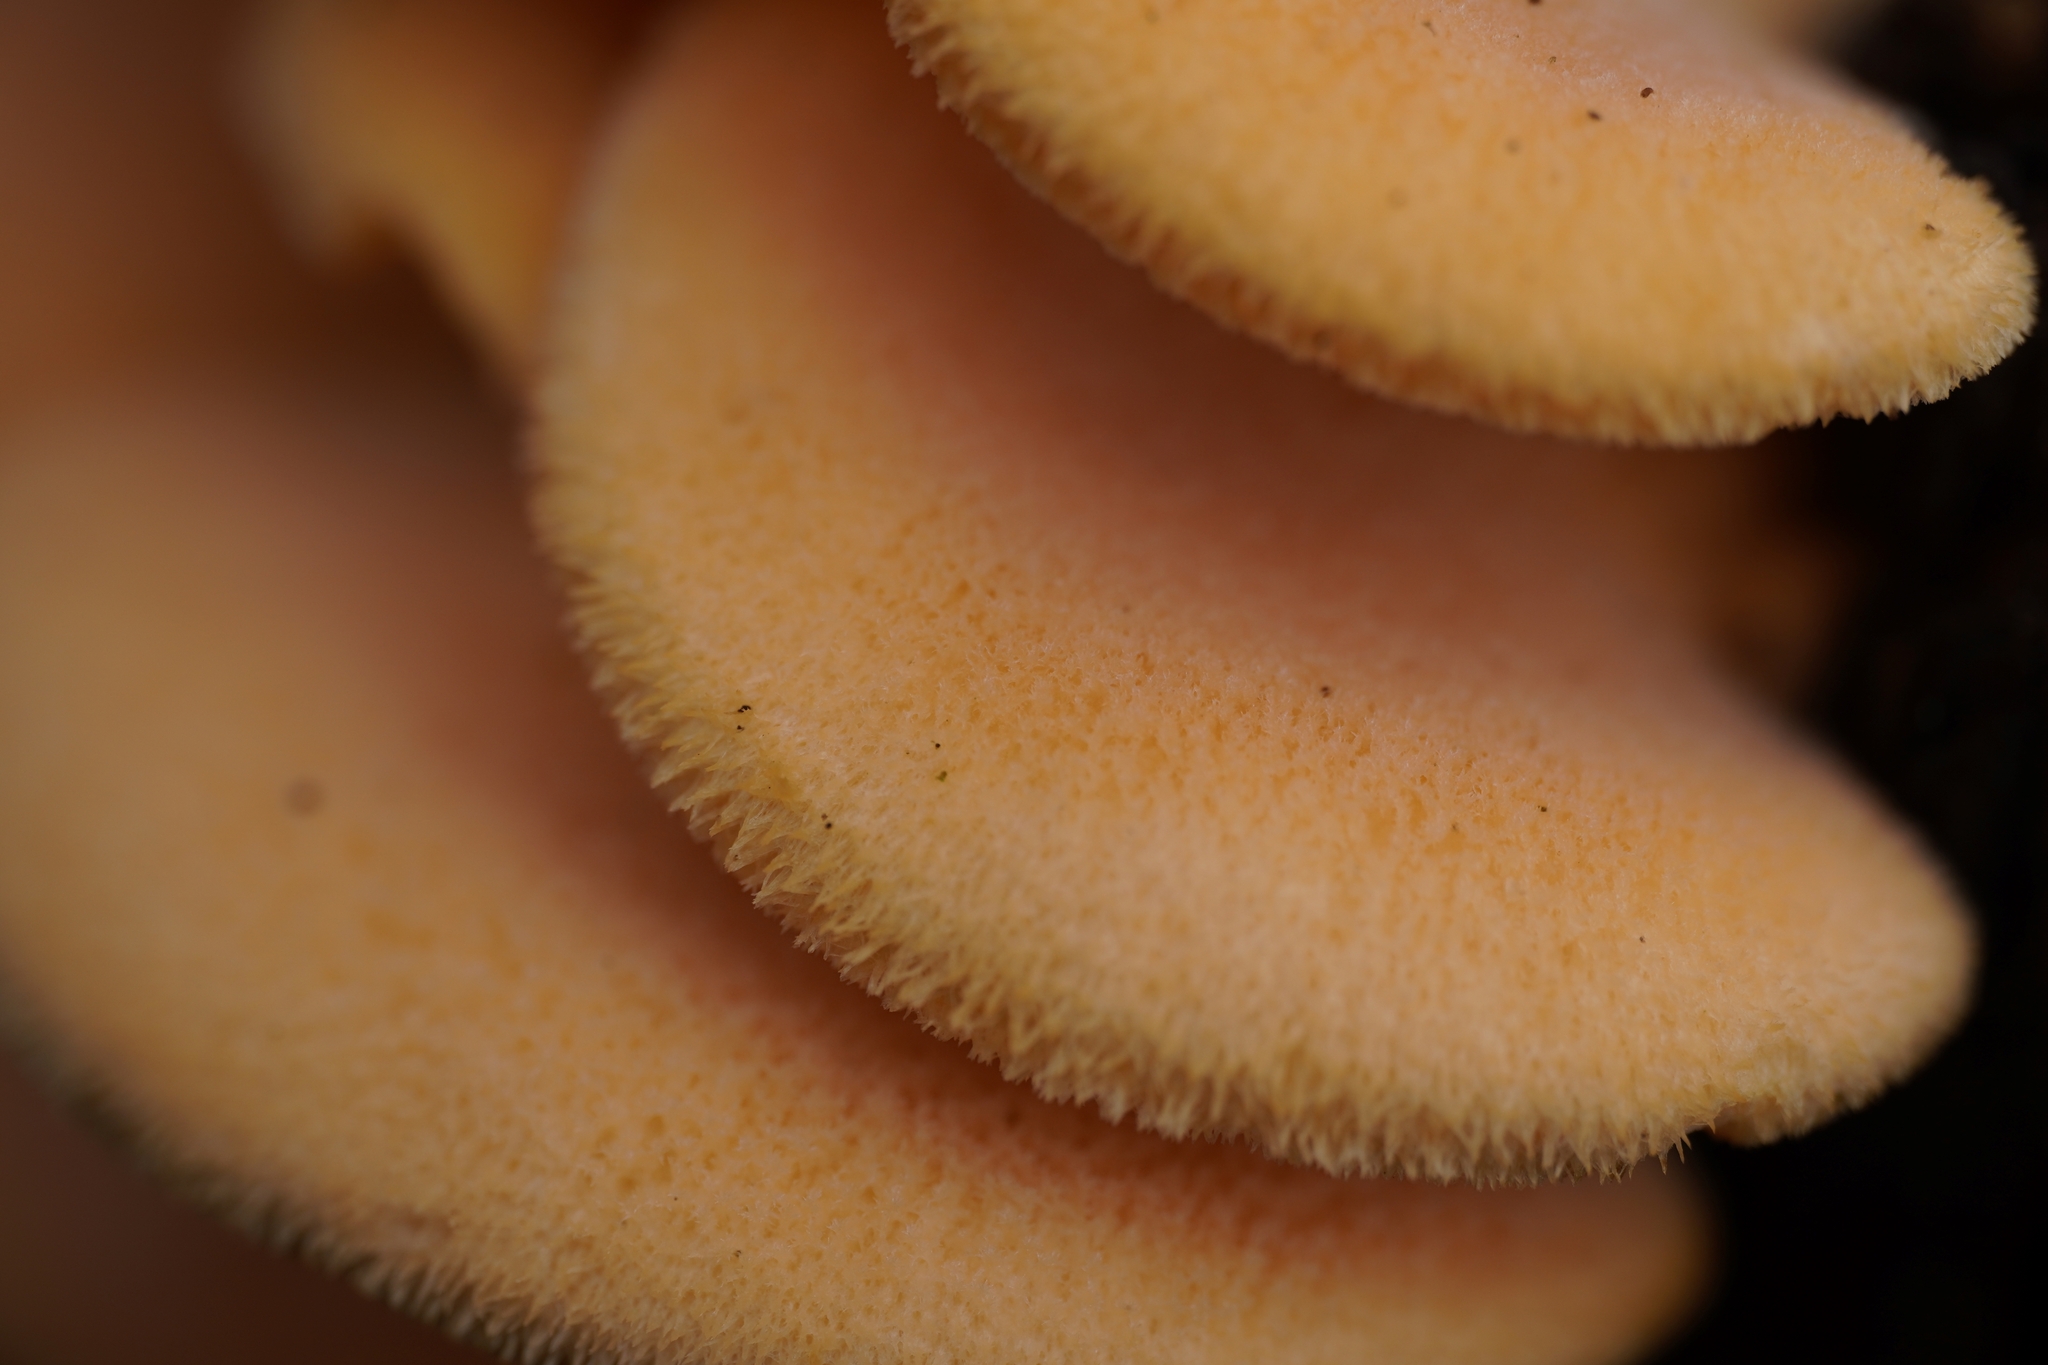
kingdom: Fungi
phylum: Basidiomycota
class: Agaricomycetes
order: Agaricales
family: Phyllotopsidaceae
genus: Phyllotopsis
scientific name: Phyllotopsis nidulans
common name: Orange mock oyster
